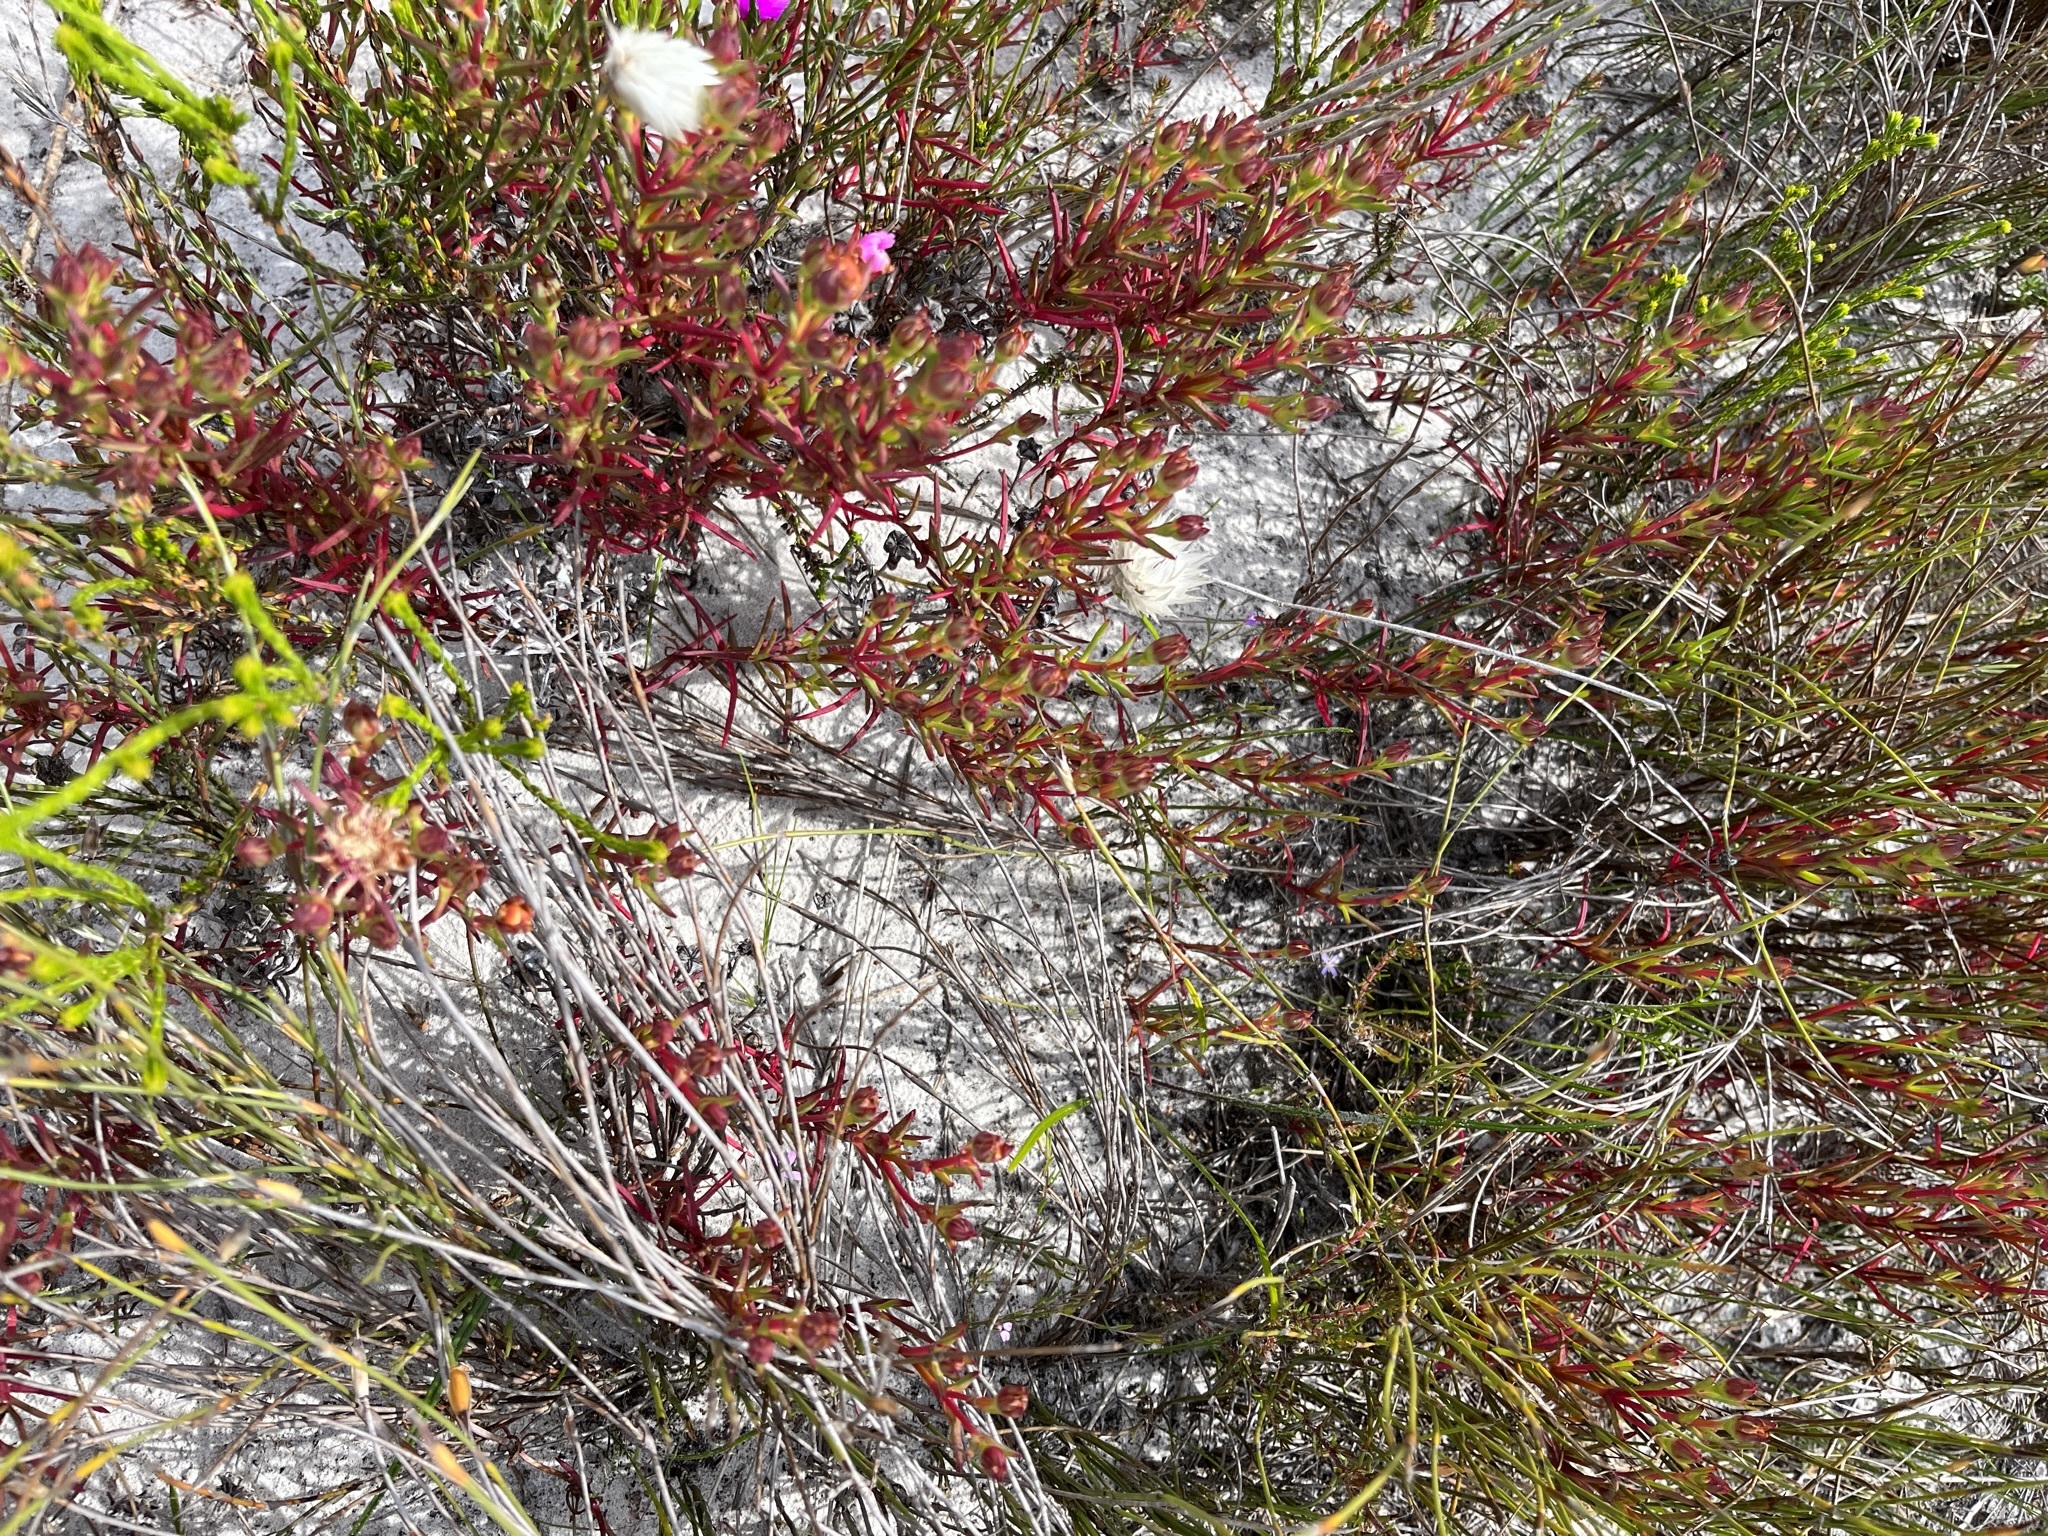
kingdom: Plantae
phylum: Tracheophyta
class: Magnoliopsida
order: Caryophyllales
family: Aizoaceae
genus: Lampranthus
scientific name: Lampranthus tenuifolius
